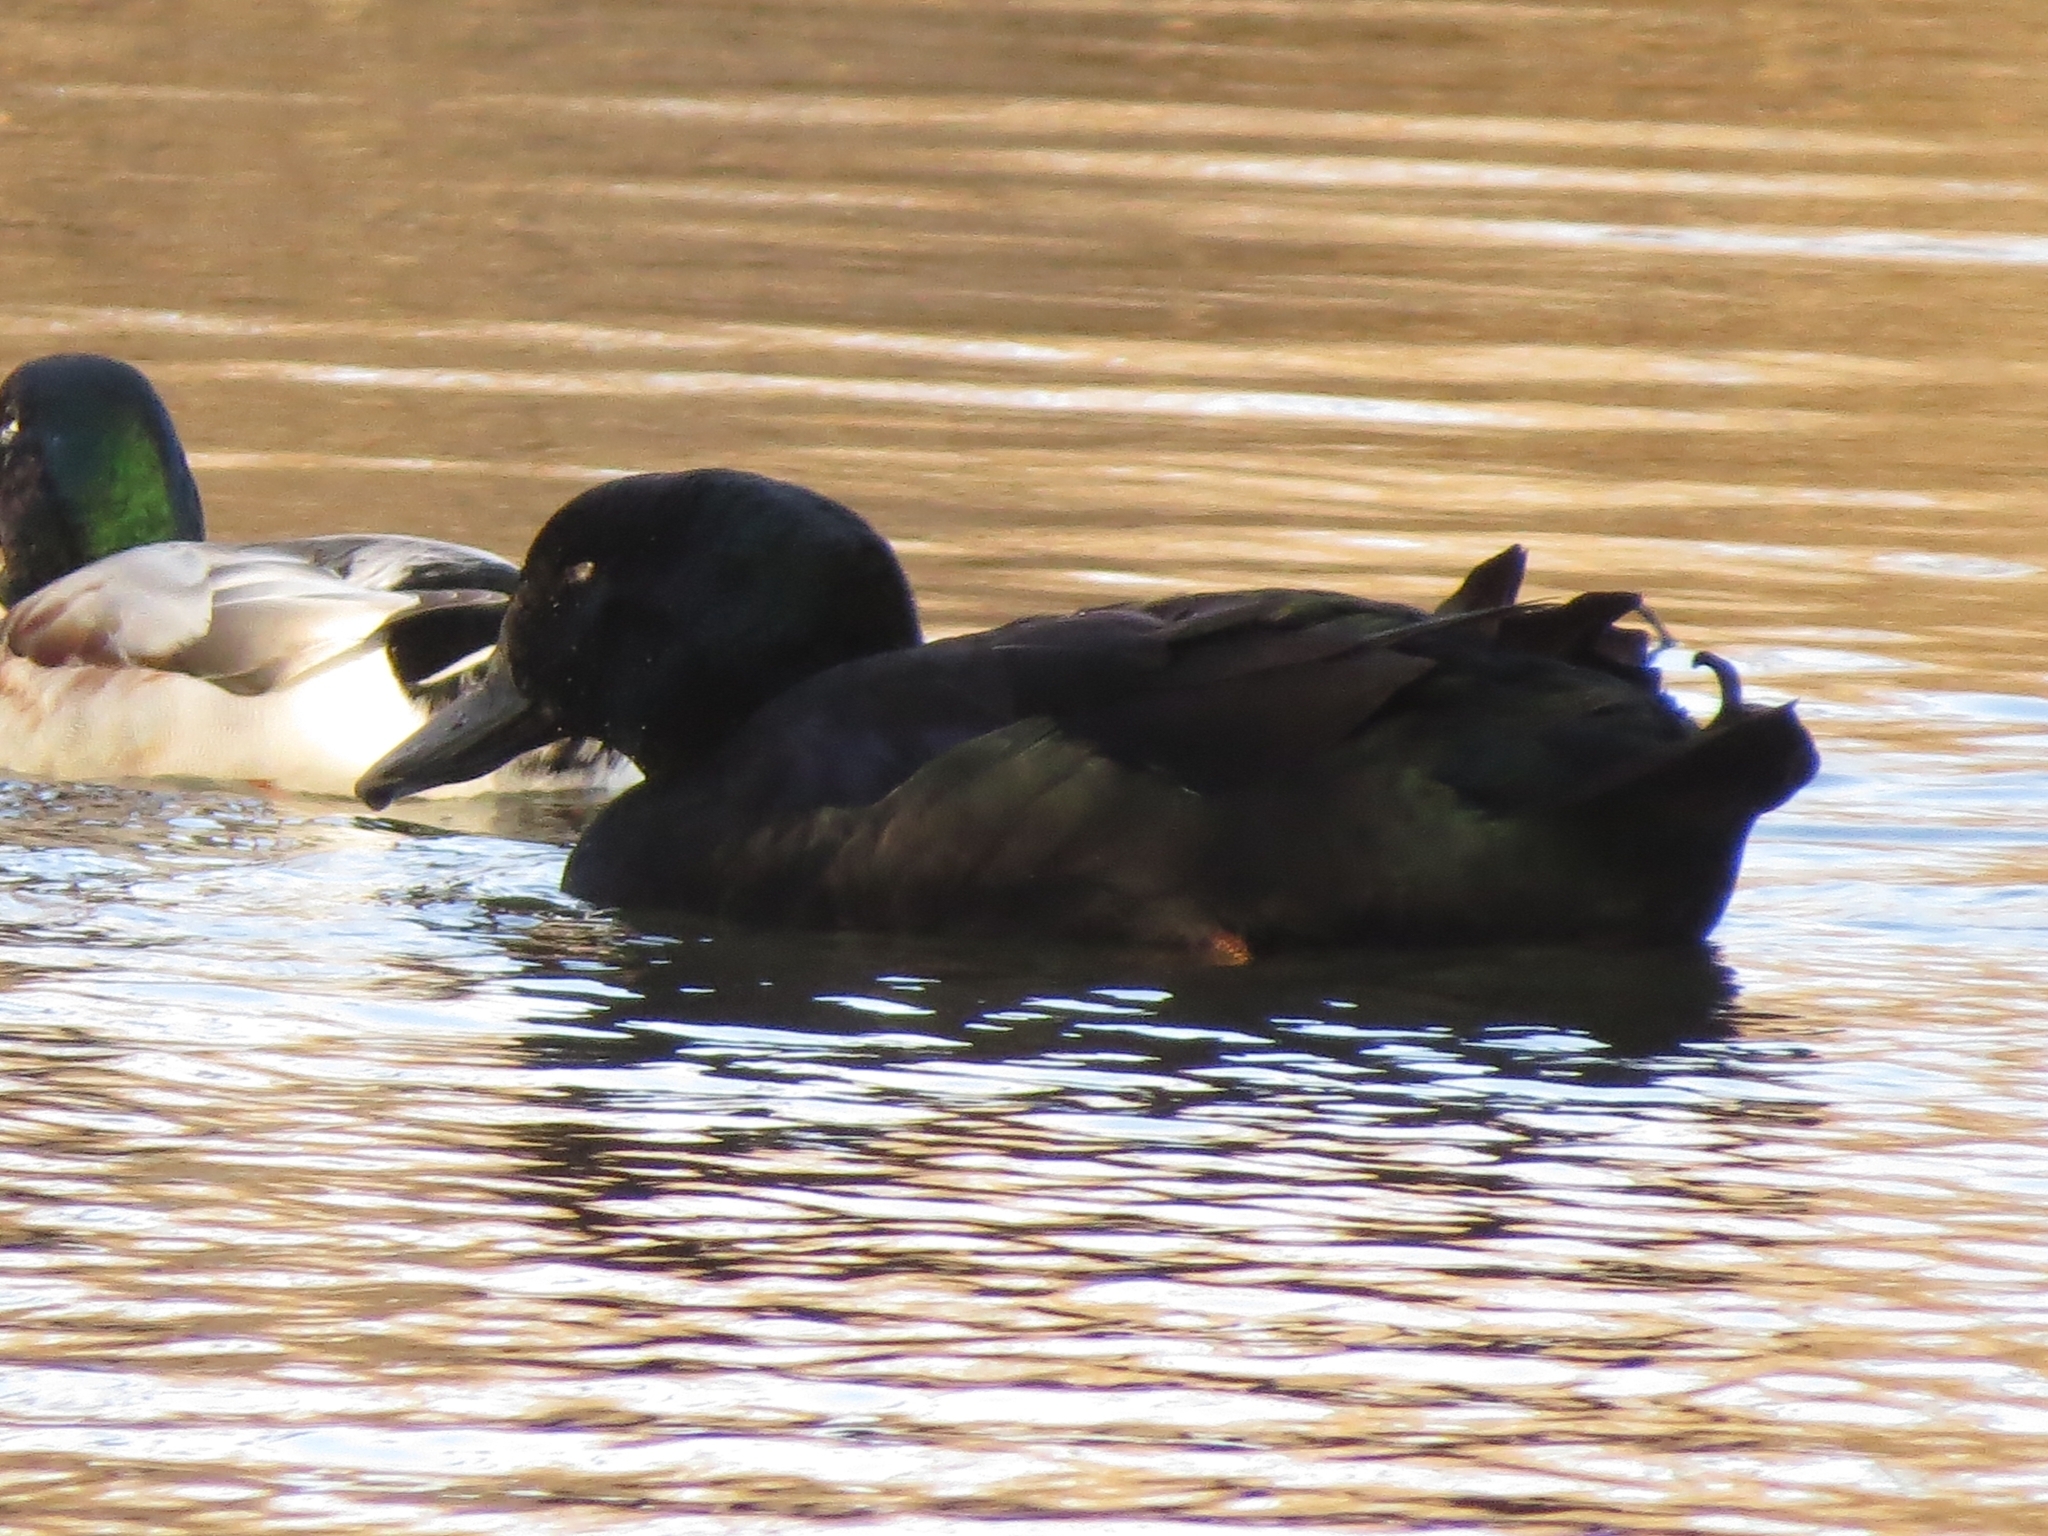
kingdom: Animalia
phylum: Chordata
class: Aves
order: Anseriformes
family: Anatidae
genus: Anas
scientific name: Anas platyrhynchos
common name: Mallard
